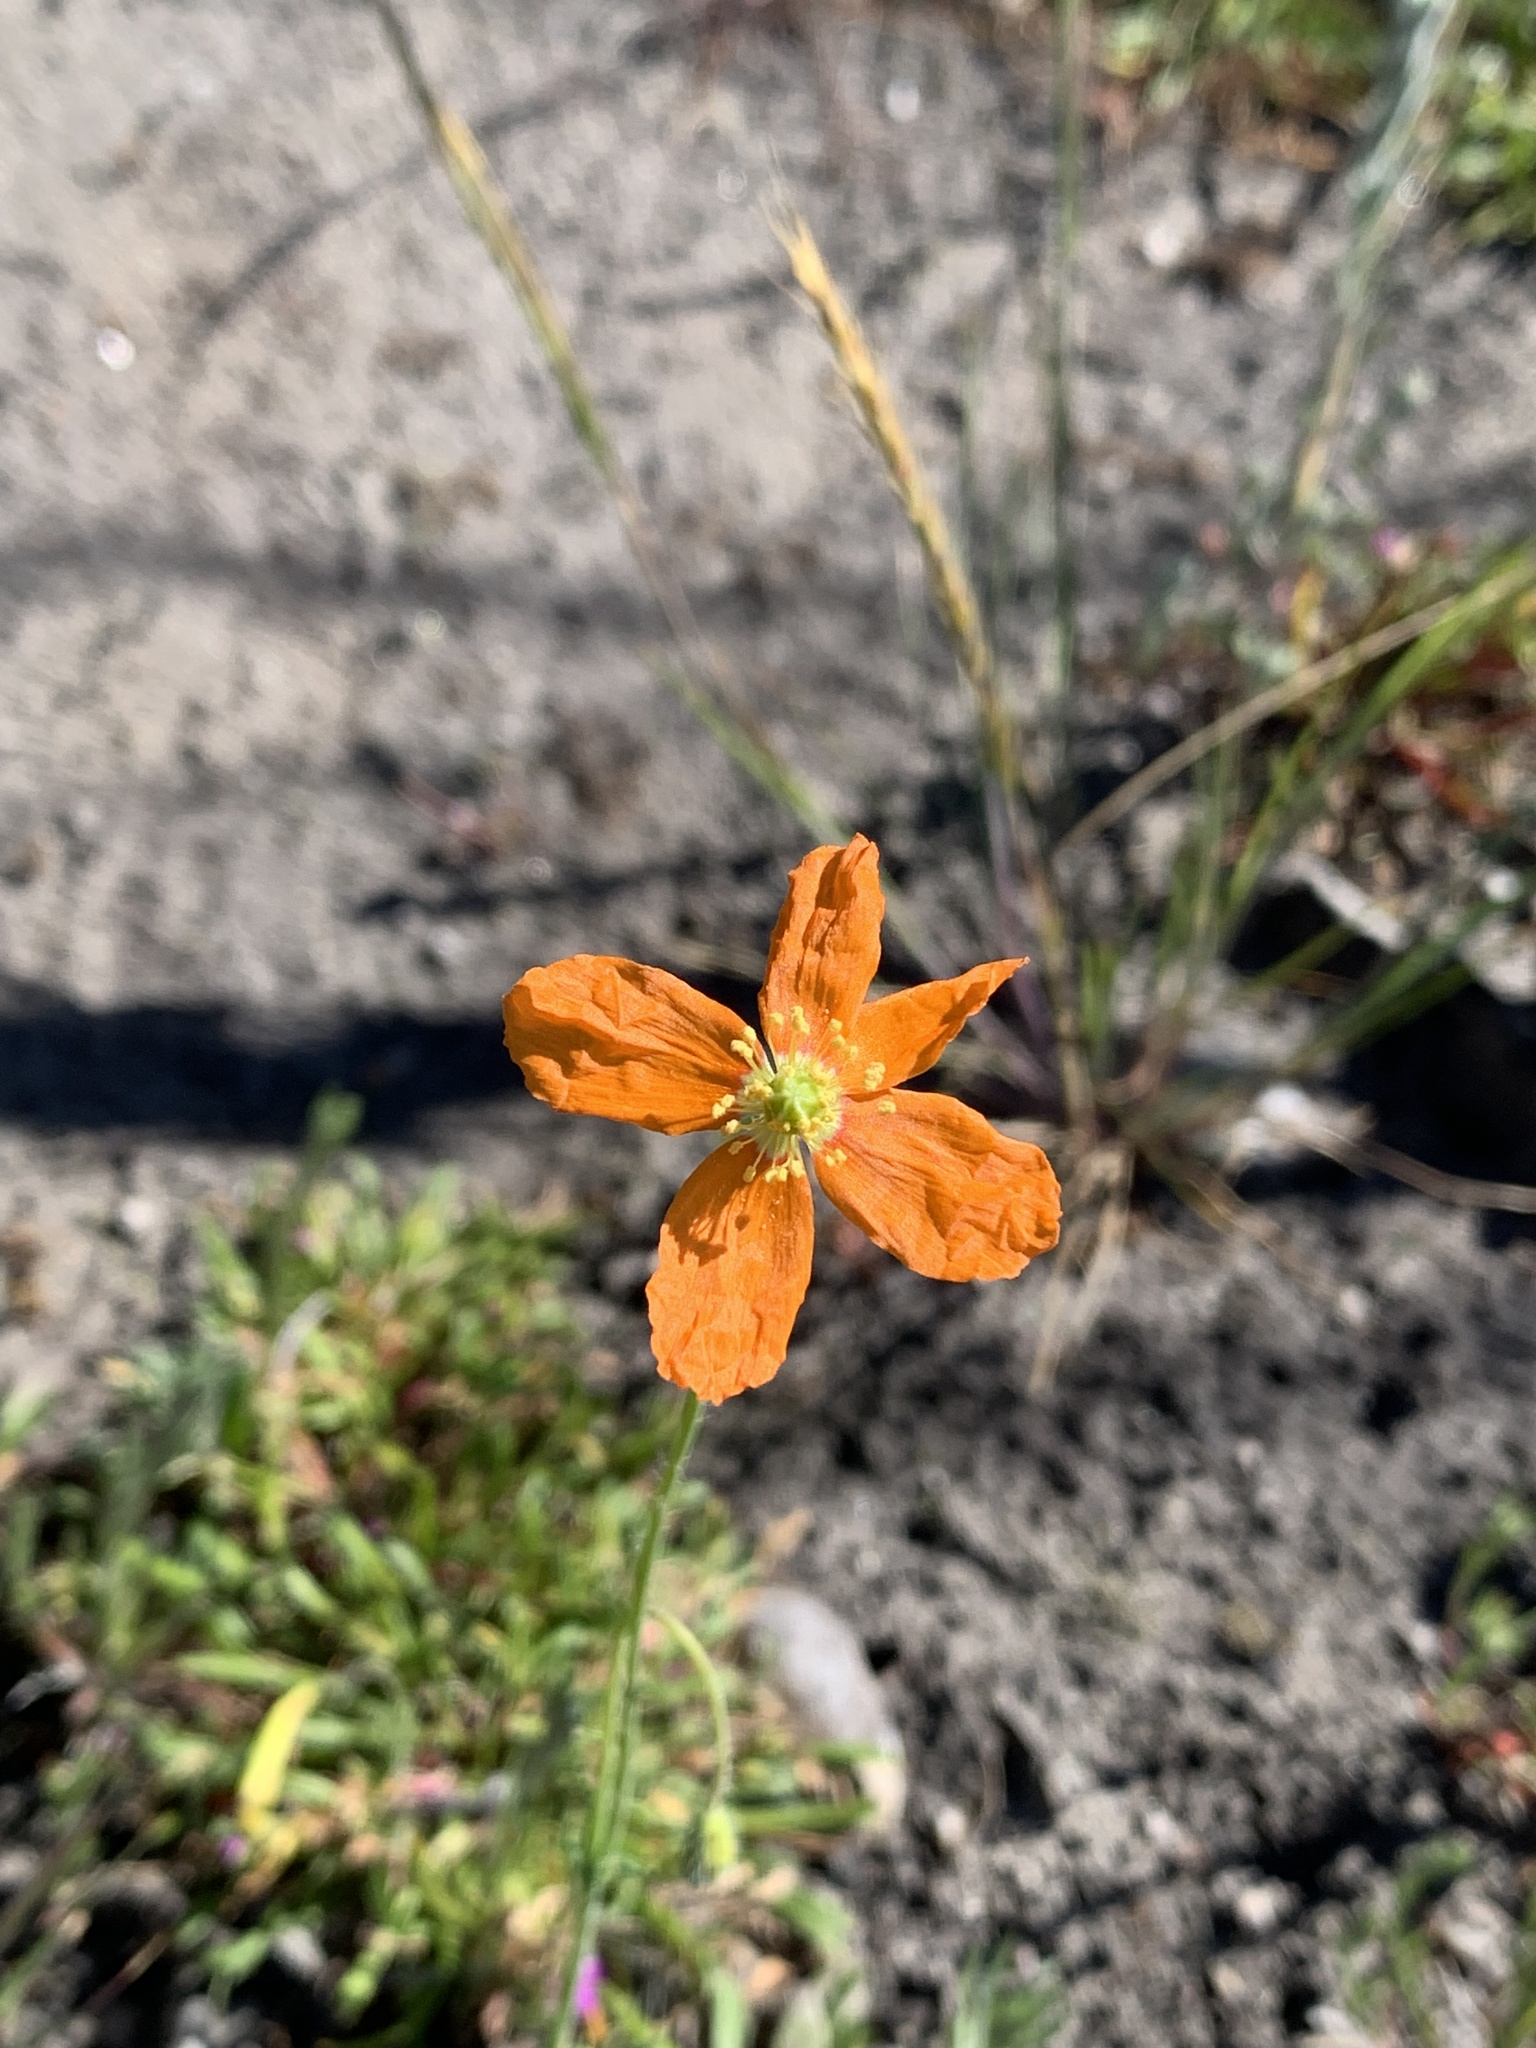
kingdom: Plantae
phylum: Tracheophyta
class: Magnoliopsida
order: Ranunculales
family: Papaveraceae
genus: Papaver
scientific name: Papaver californicum
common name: Fire poppy
